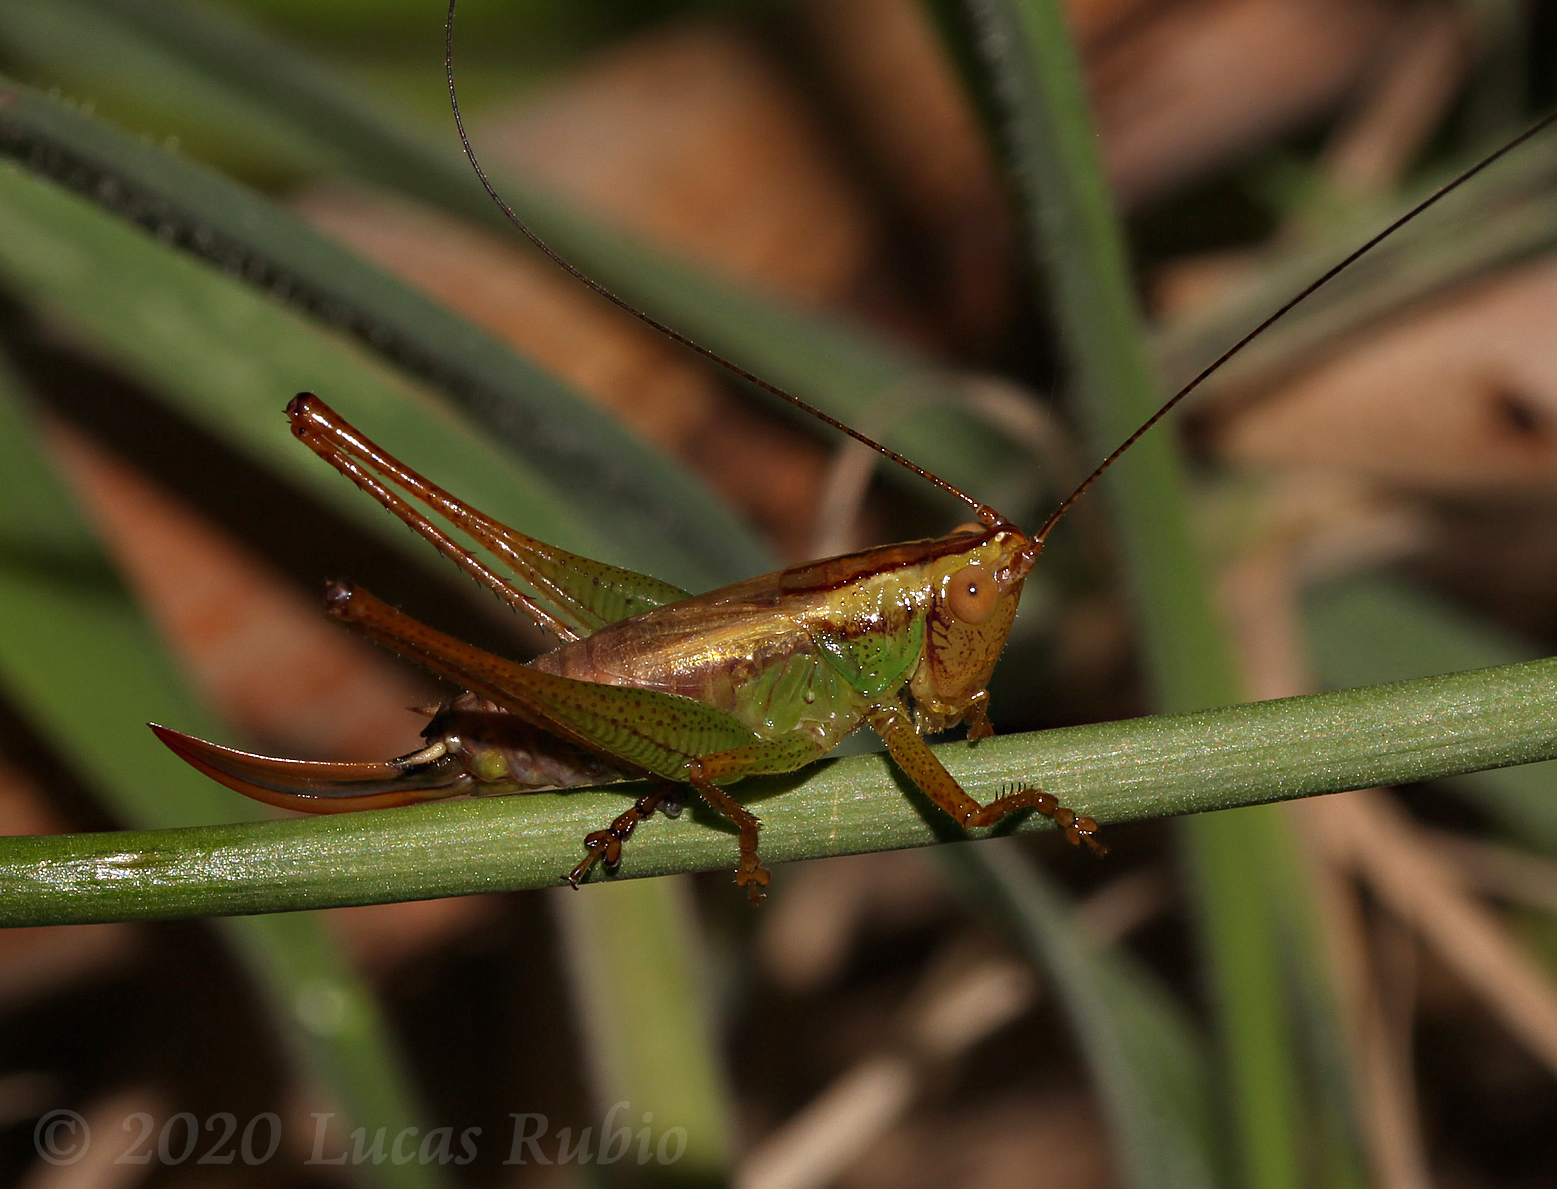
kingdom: Animalia
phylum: Arthropoda
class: Insecta
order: Orthoptera
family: Tettigoniidae
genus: Conocephalus
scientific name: Conocephalus cinnamonifrons
